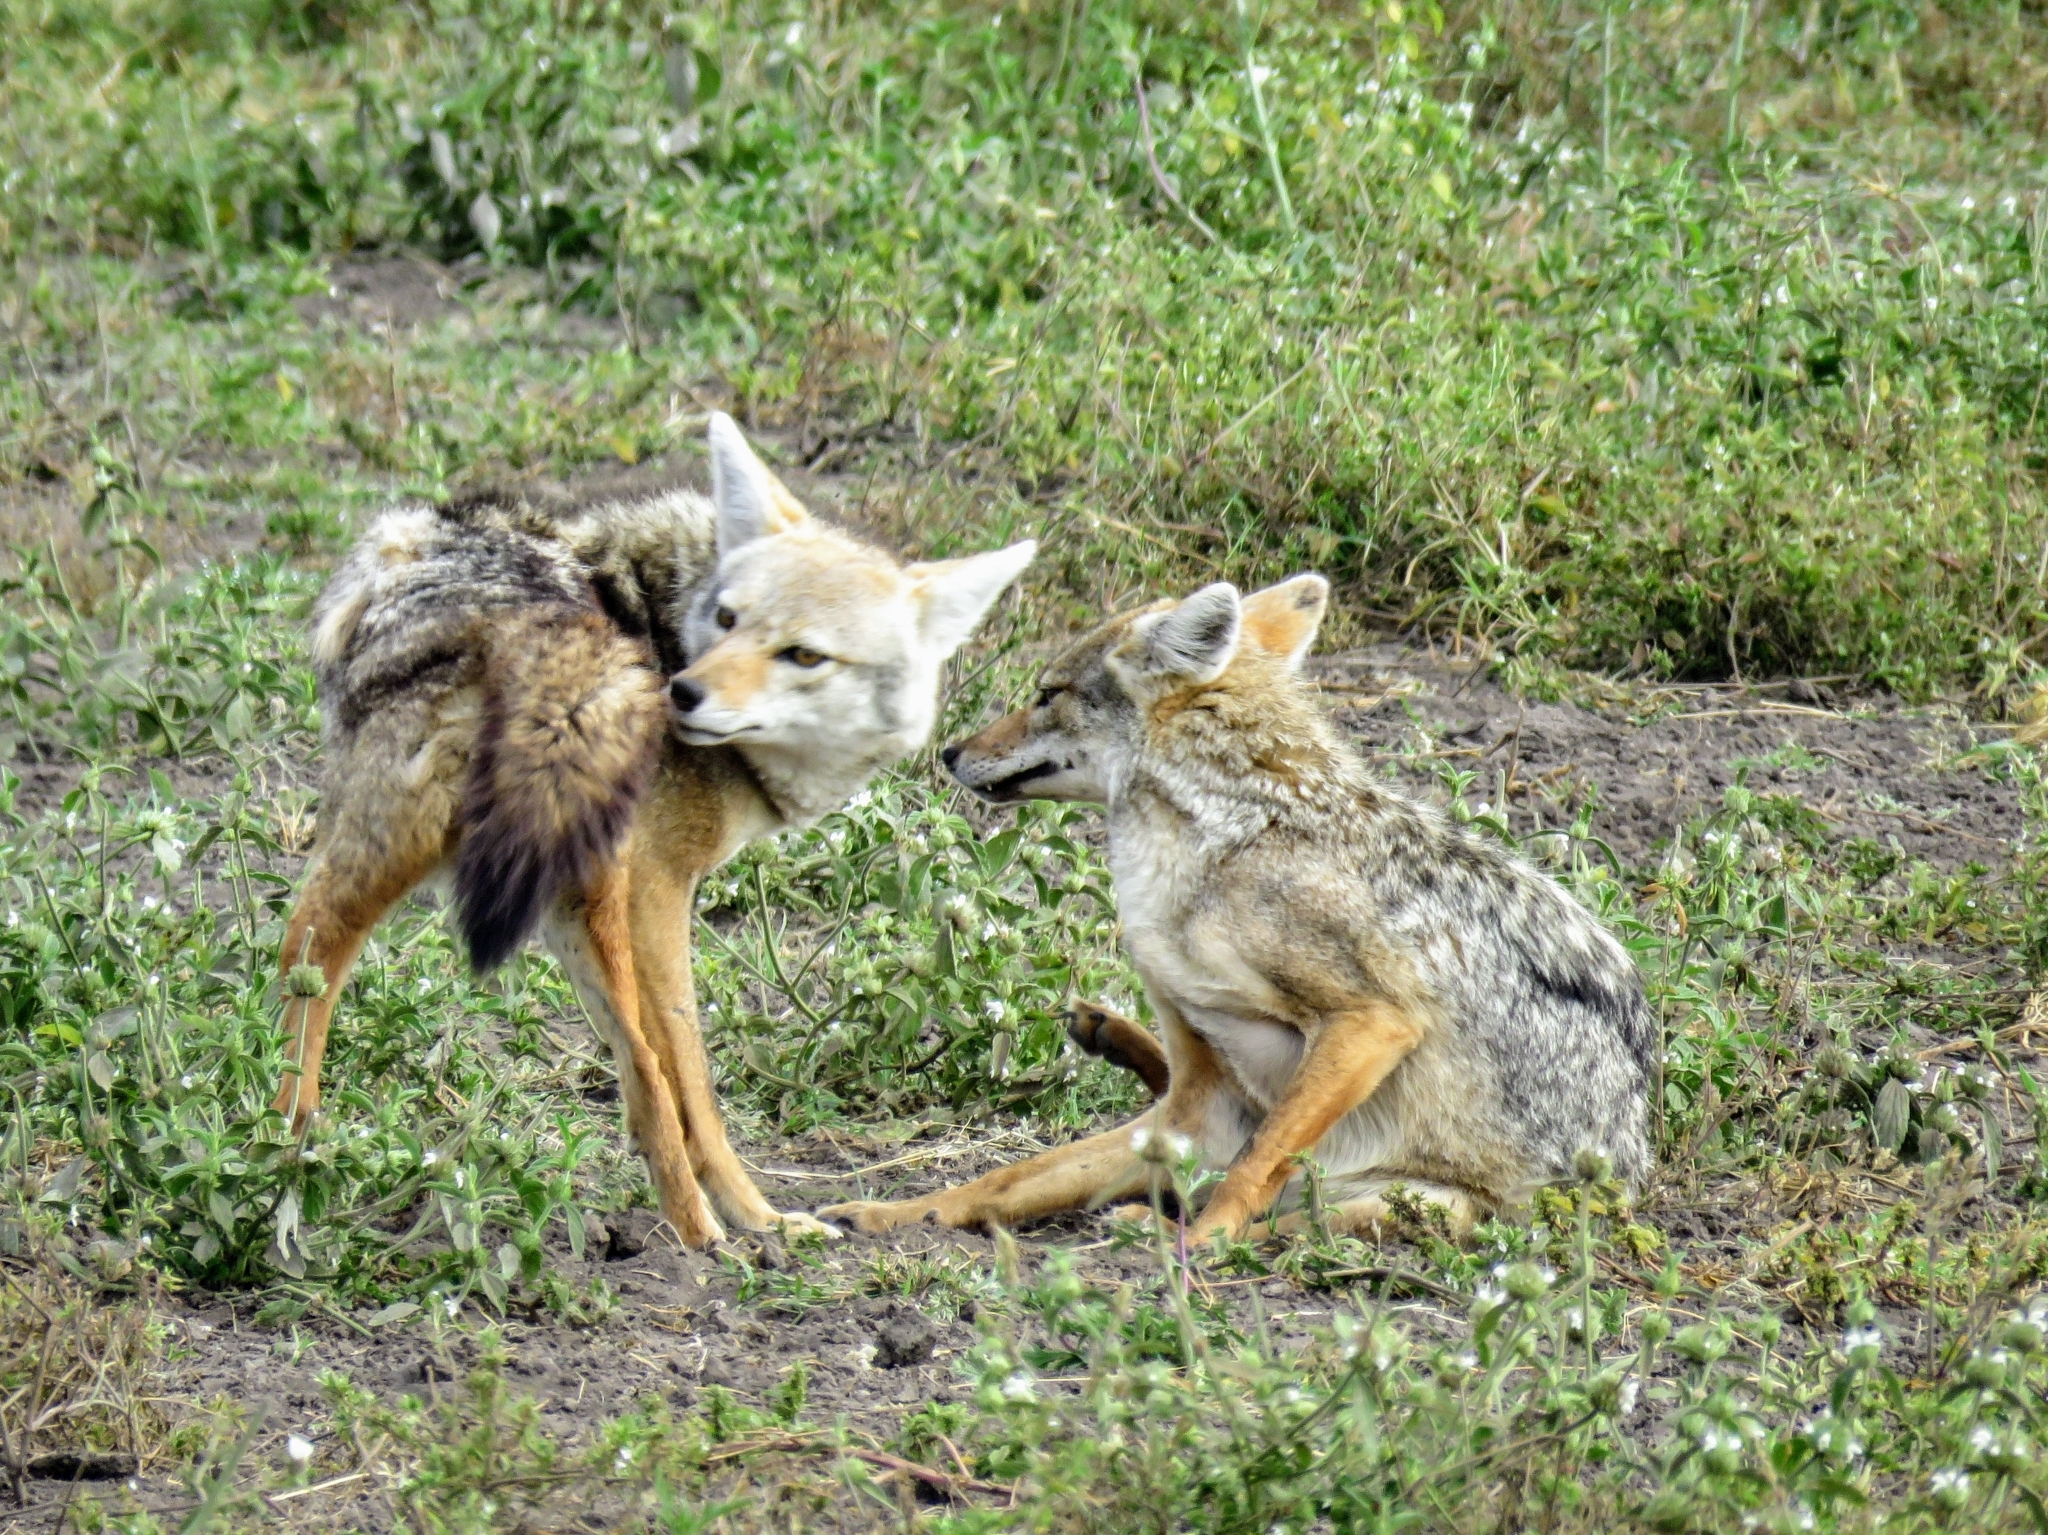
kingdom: Animalia
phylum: Chordata
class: Mammalia
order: Carnivora
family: Canidae
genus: Canis
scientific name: Canis lupaster
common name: African golden wolf
